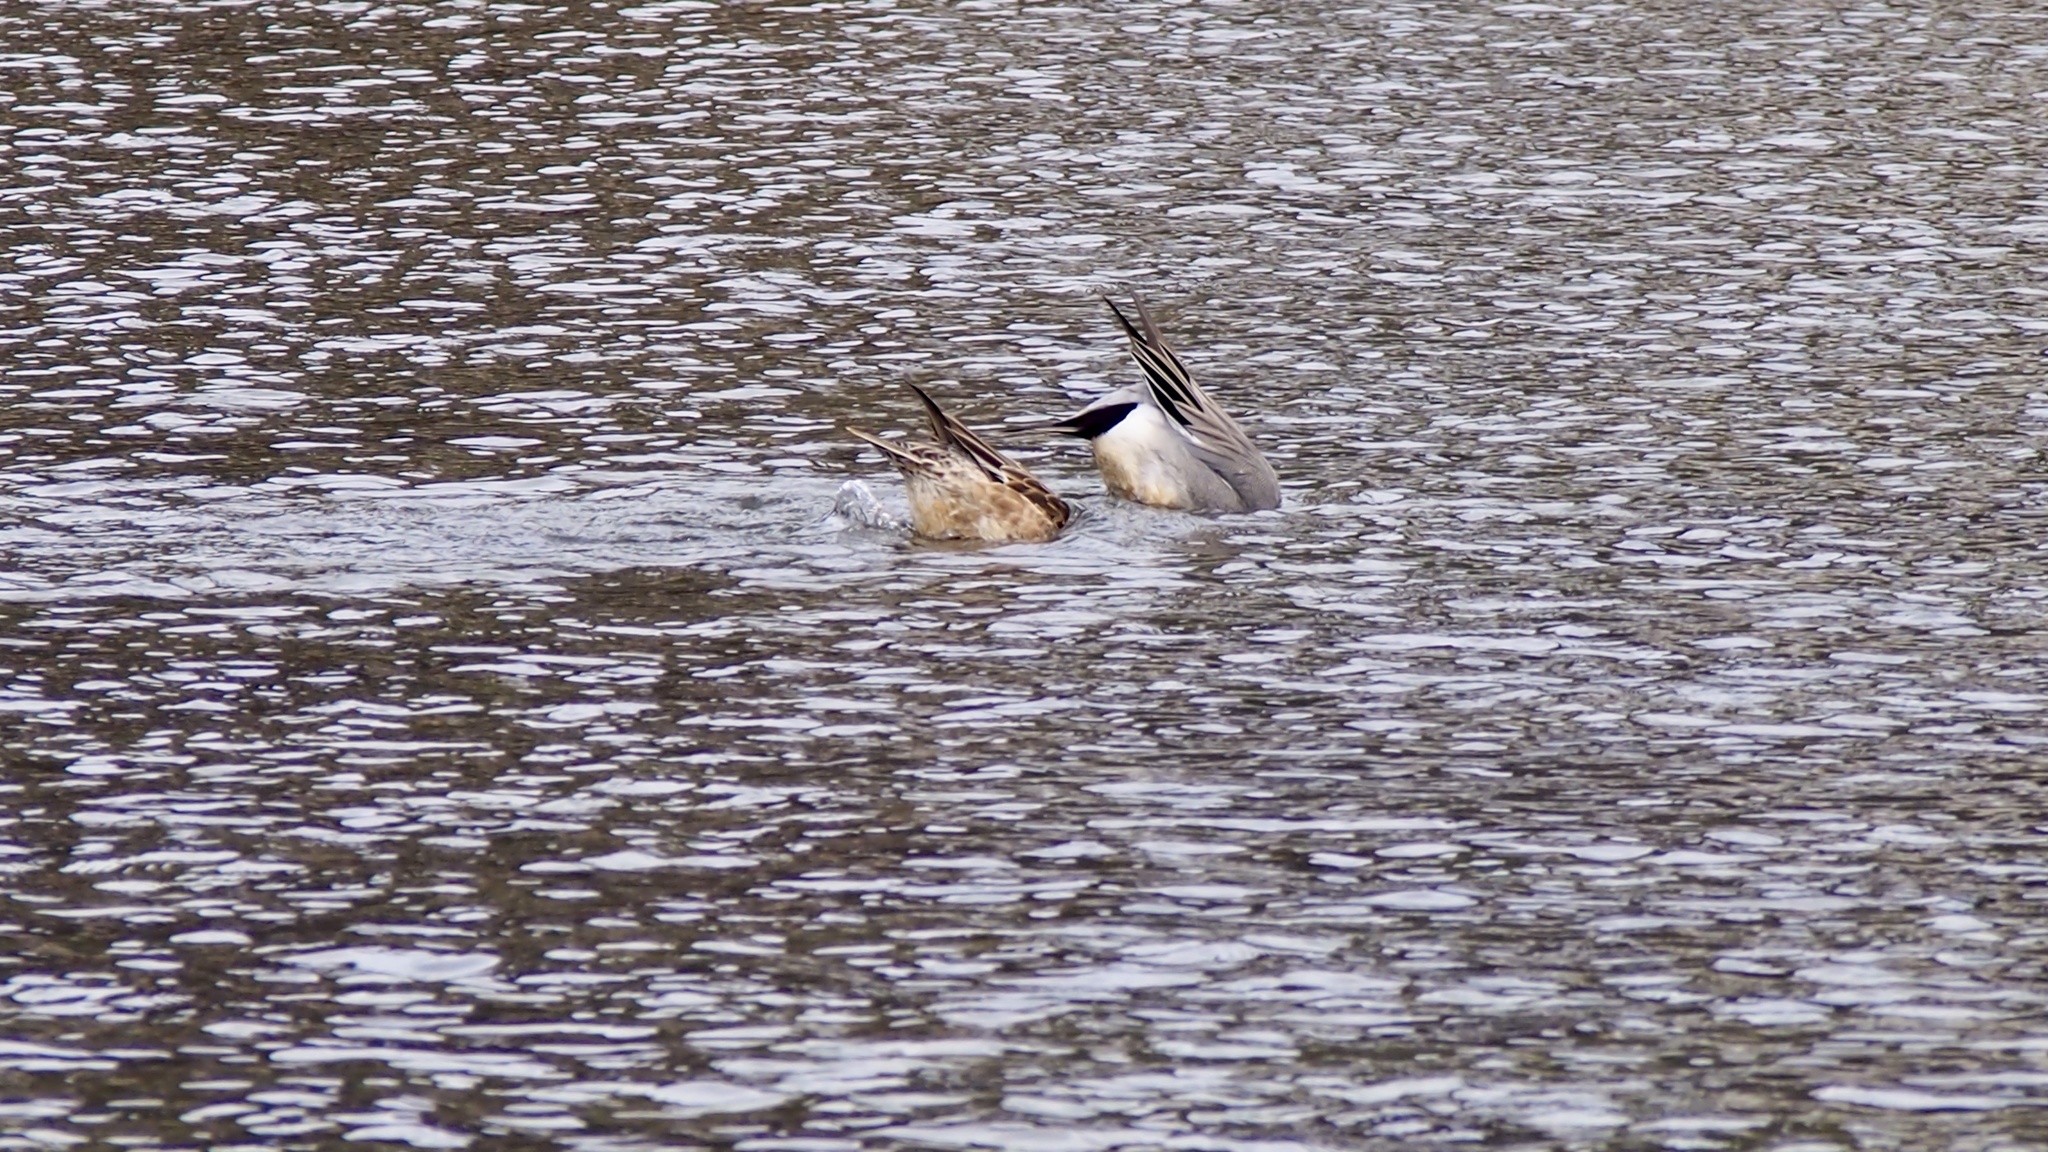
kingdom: Animalia
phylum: Chordata
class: Aves
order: Anseriformes
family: Anatidae
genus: Mareca
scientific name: Mareca penelope
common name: Eurasian wigeon
